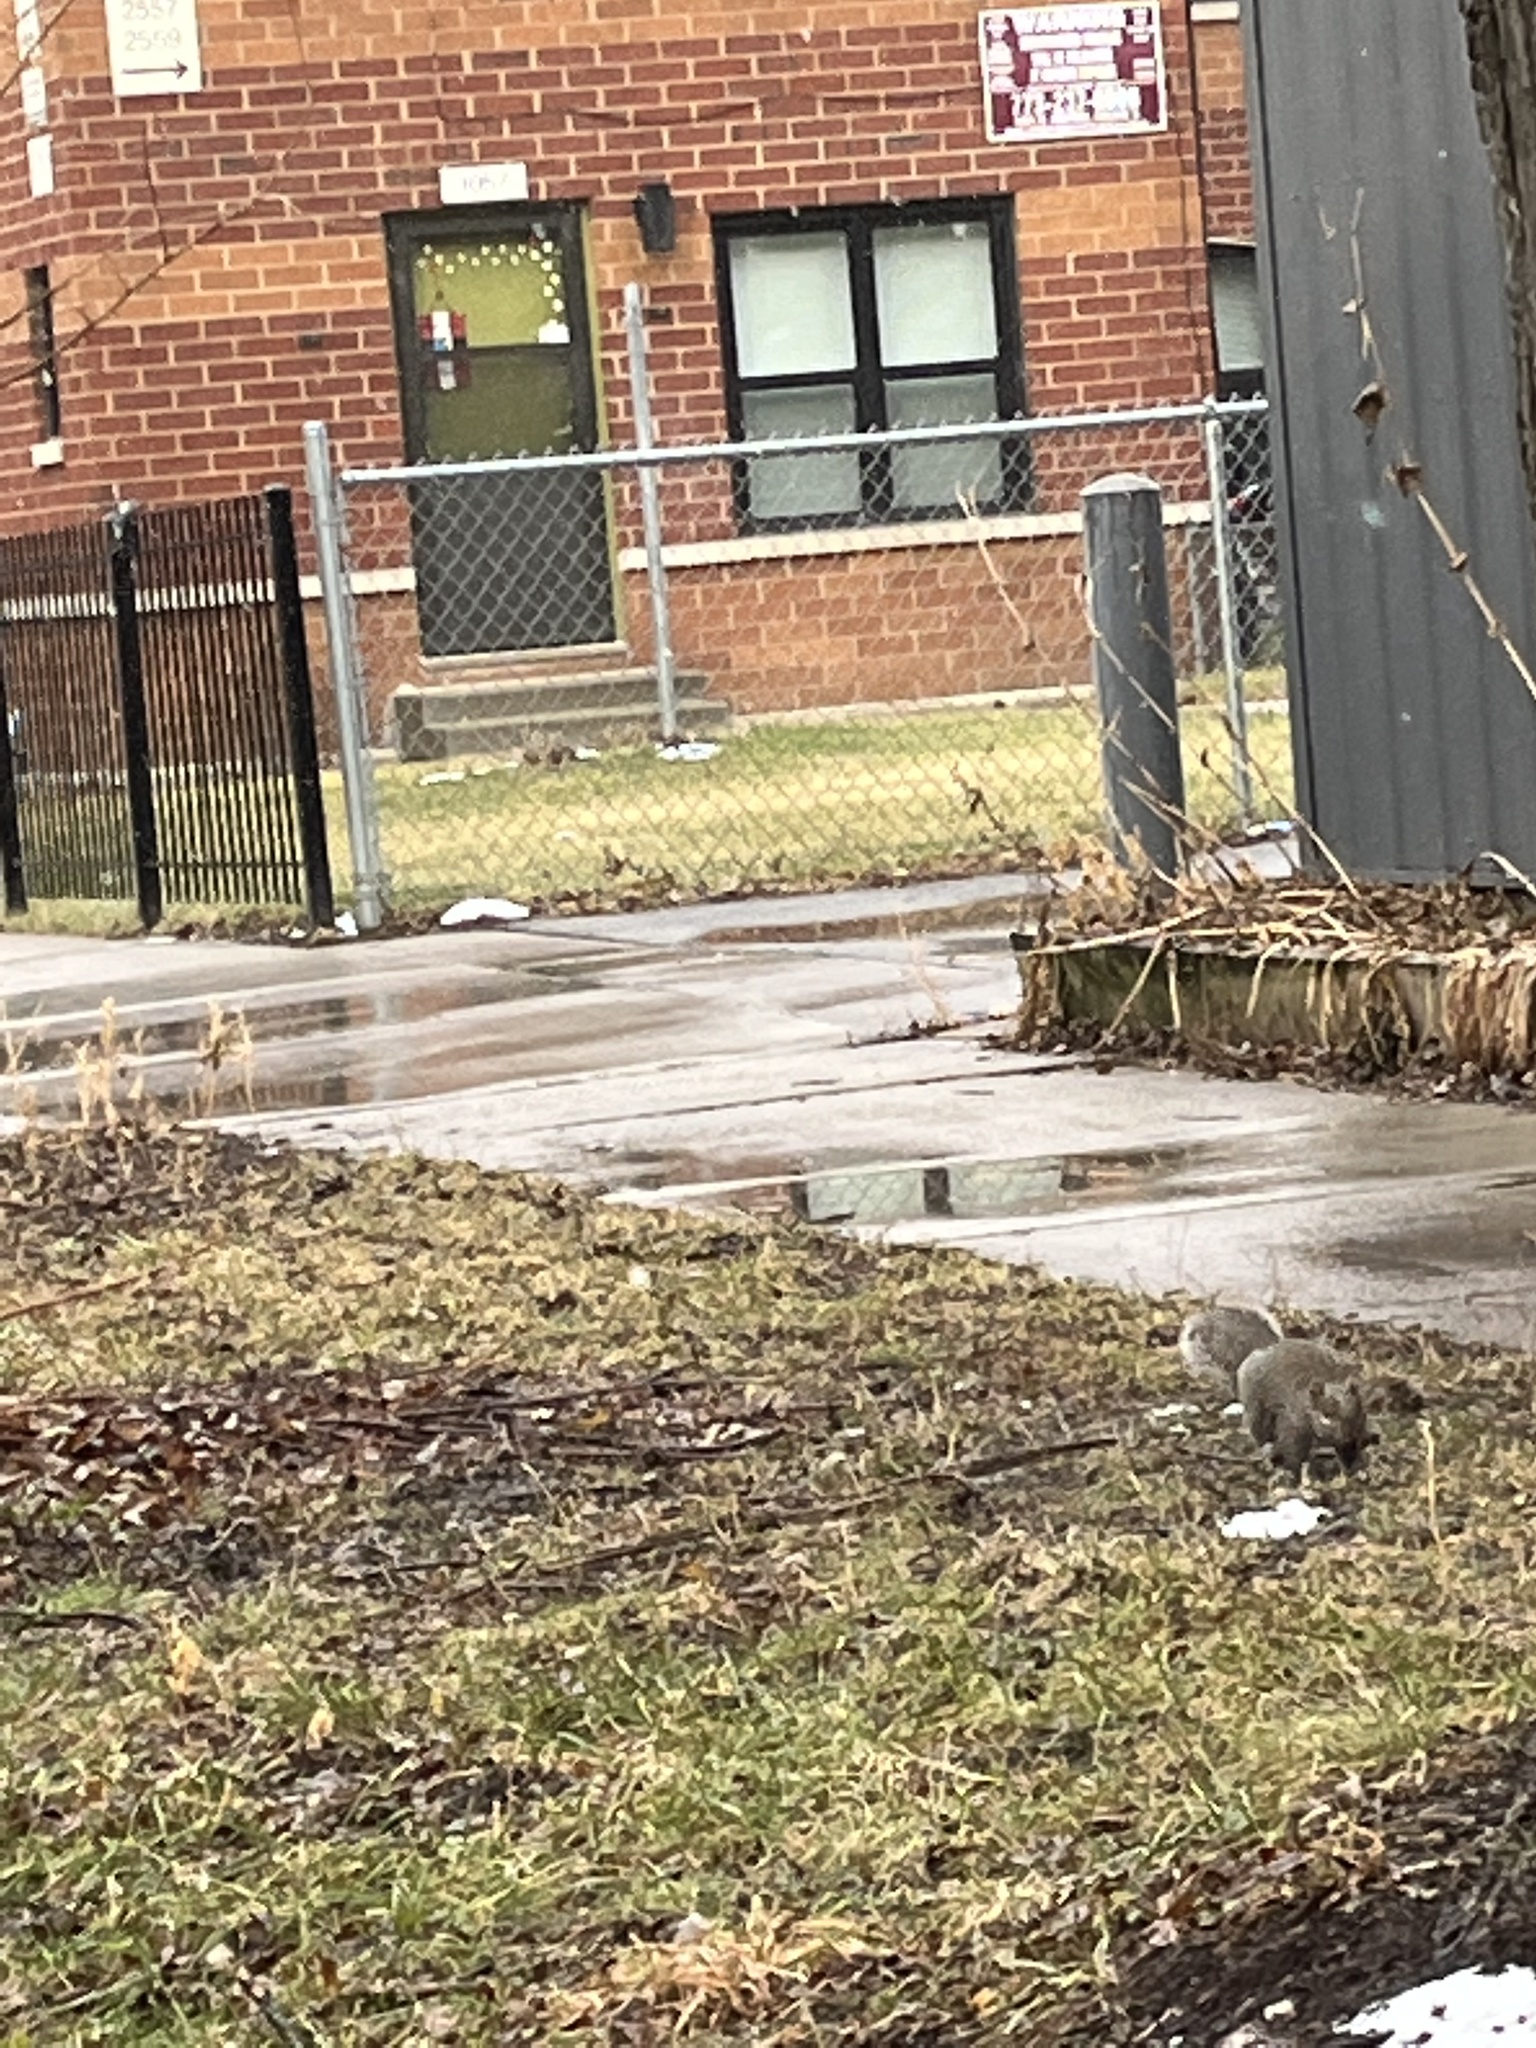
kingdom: Animalia
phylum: Chordata
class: Mammalia
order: Rodentia
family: Sciuridae
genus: Sciurus
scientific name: Sciurus carolinensis
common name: Eastern gray squirrel
